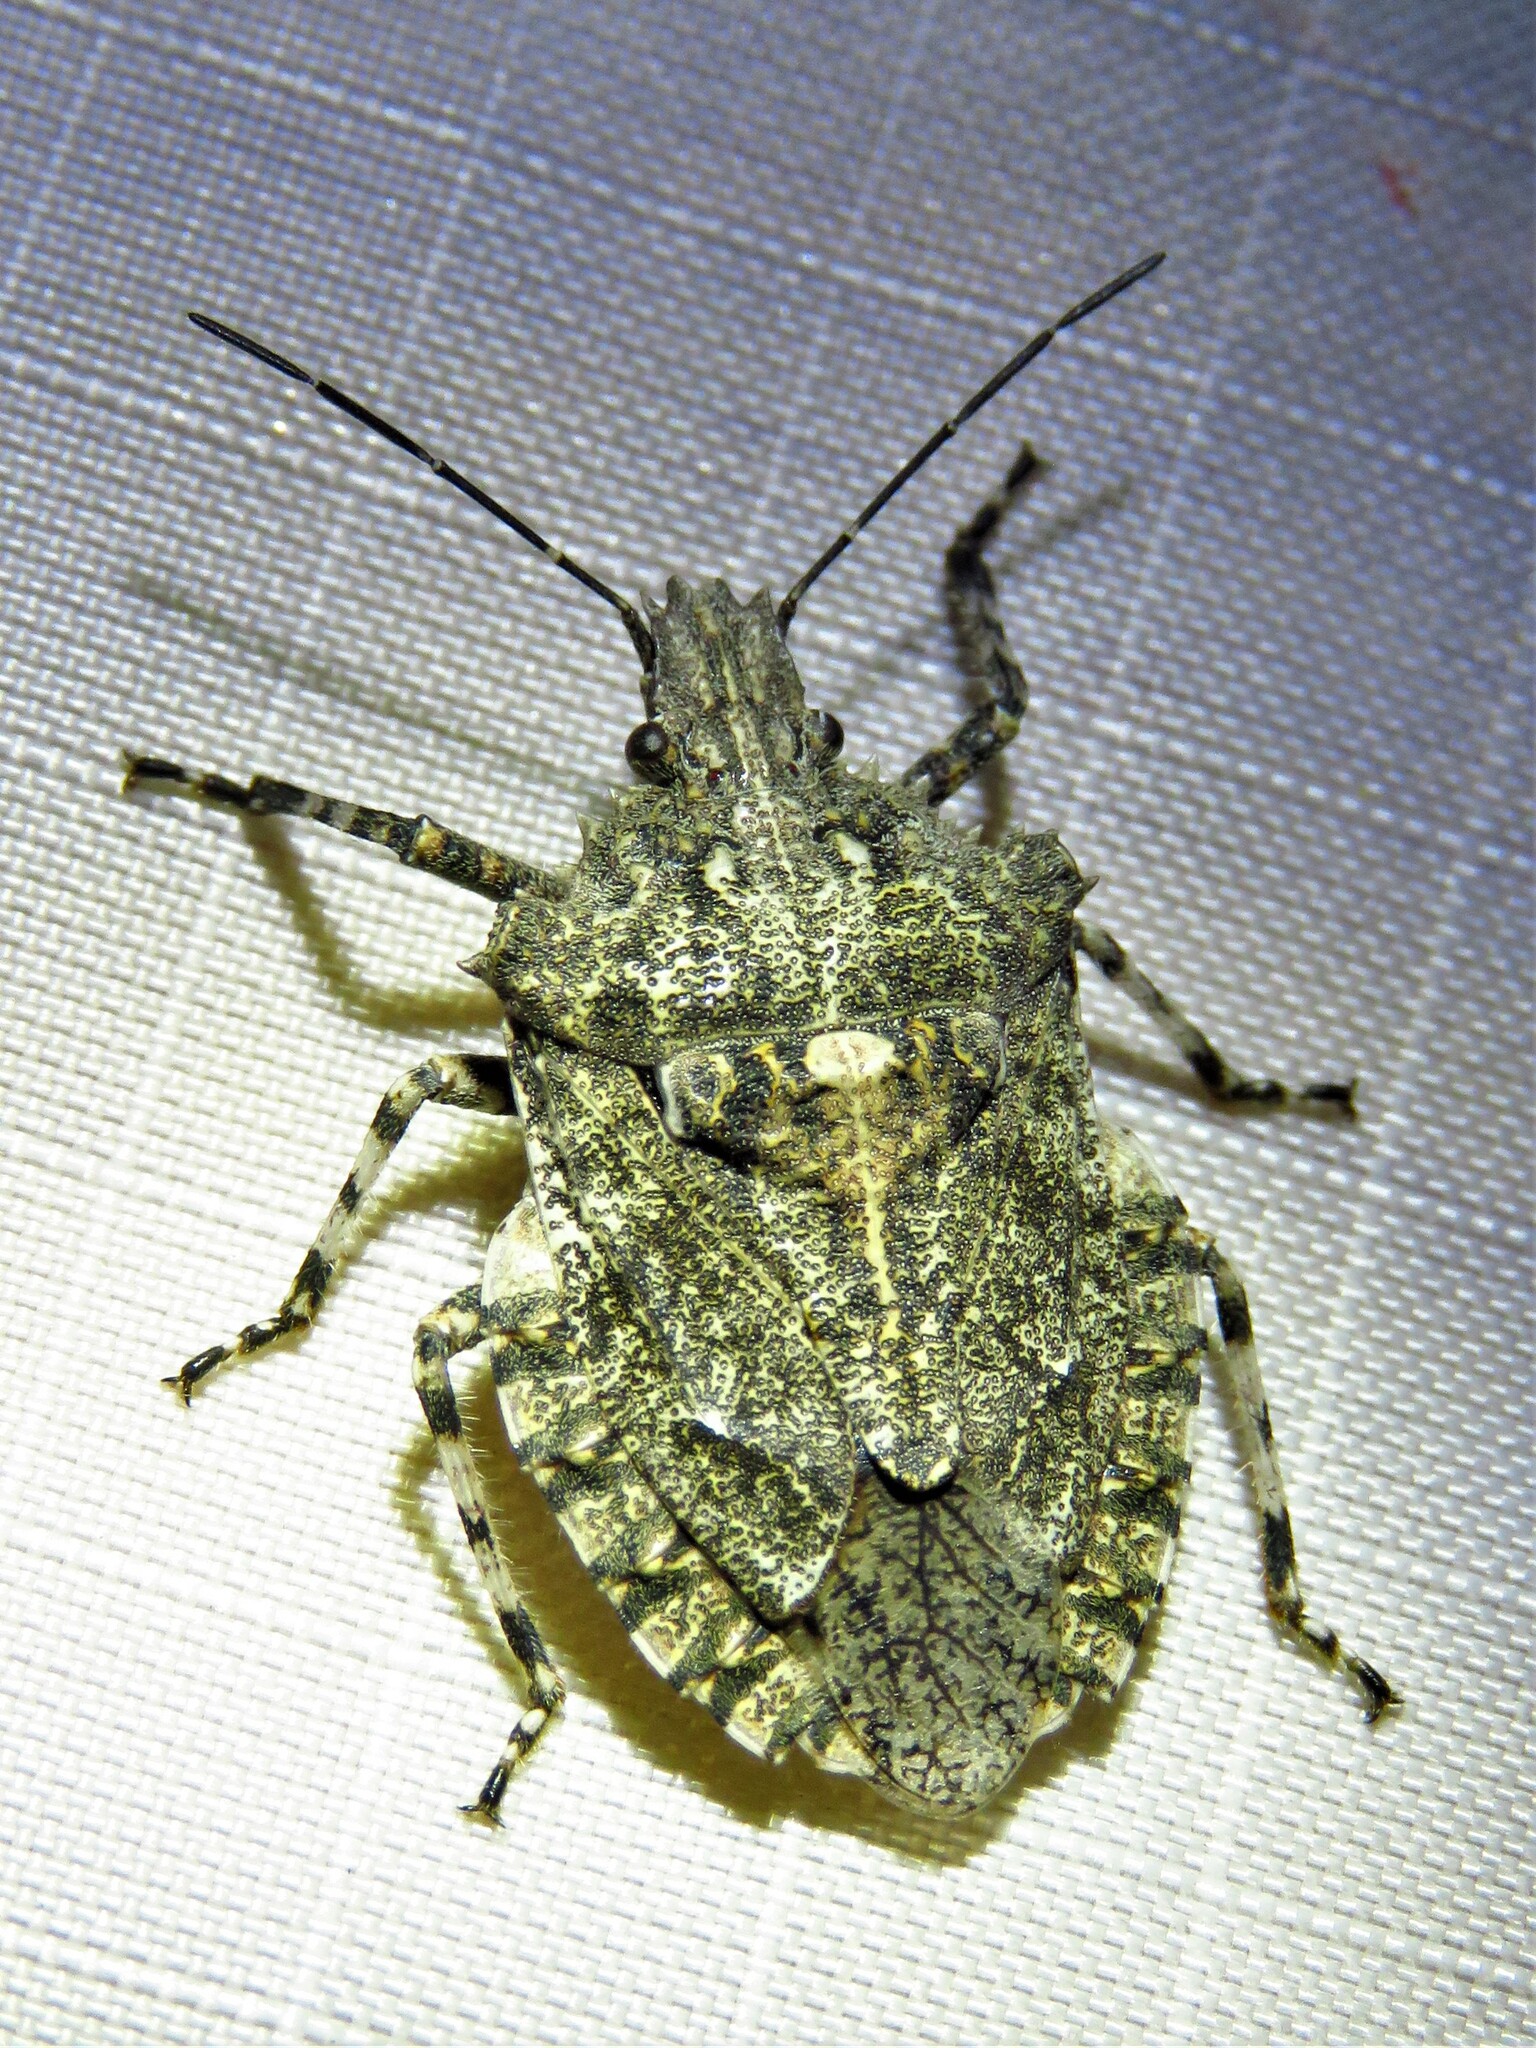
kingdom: Animalia
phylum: Arthropoda
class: Insecta
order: Hemiptera
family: Pentatomidae
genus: Brochymena
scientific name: Brochymena arborea
